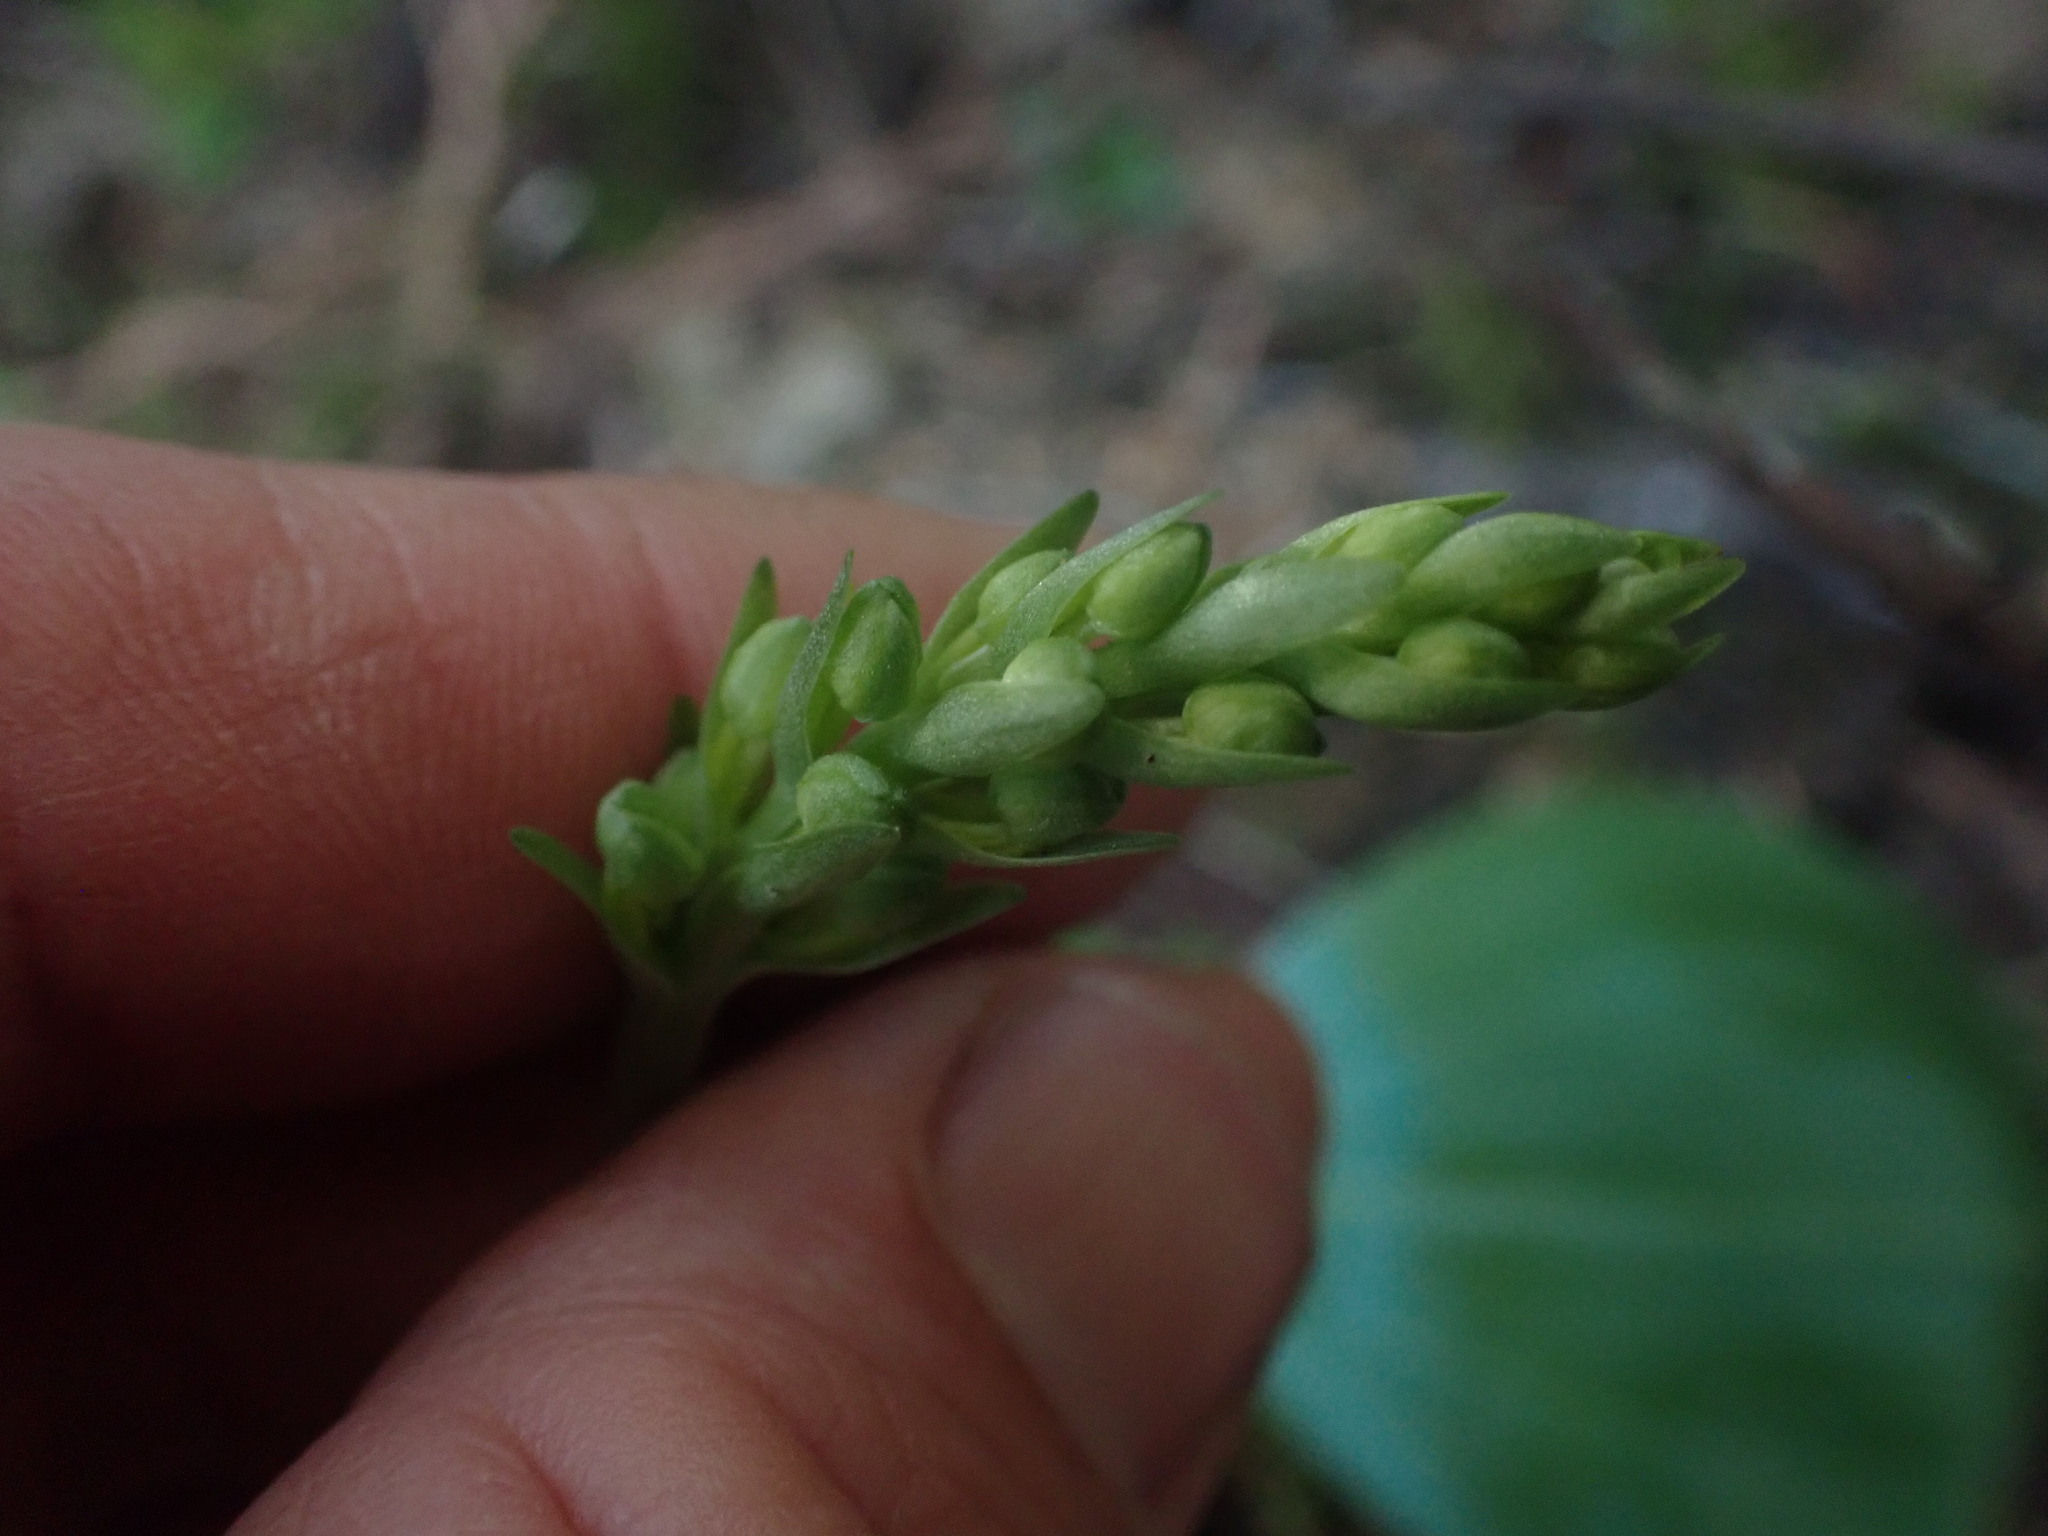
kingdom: Plantae
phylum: Tracheophyta
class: Liliopsida
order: Asparagales
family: Orchidaceae
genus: Platanthera
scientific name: Platanthera orbiculata
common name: Large round-leaved orchid
